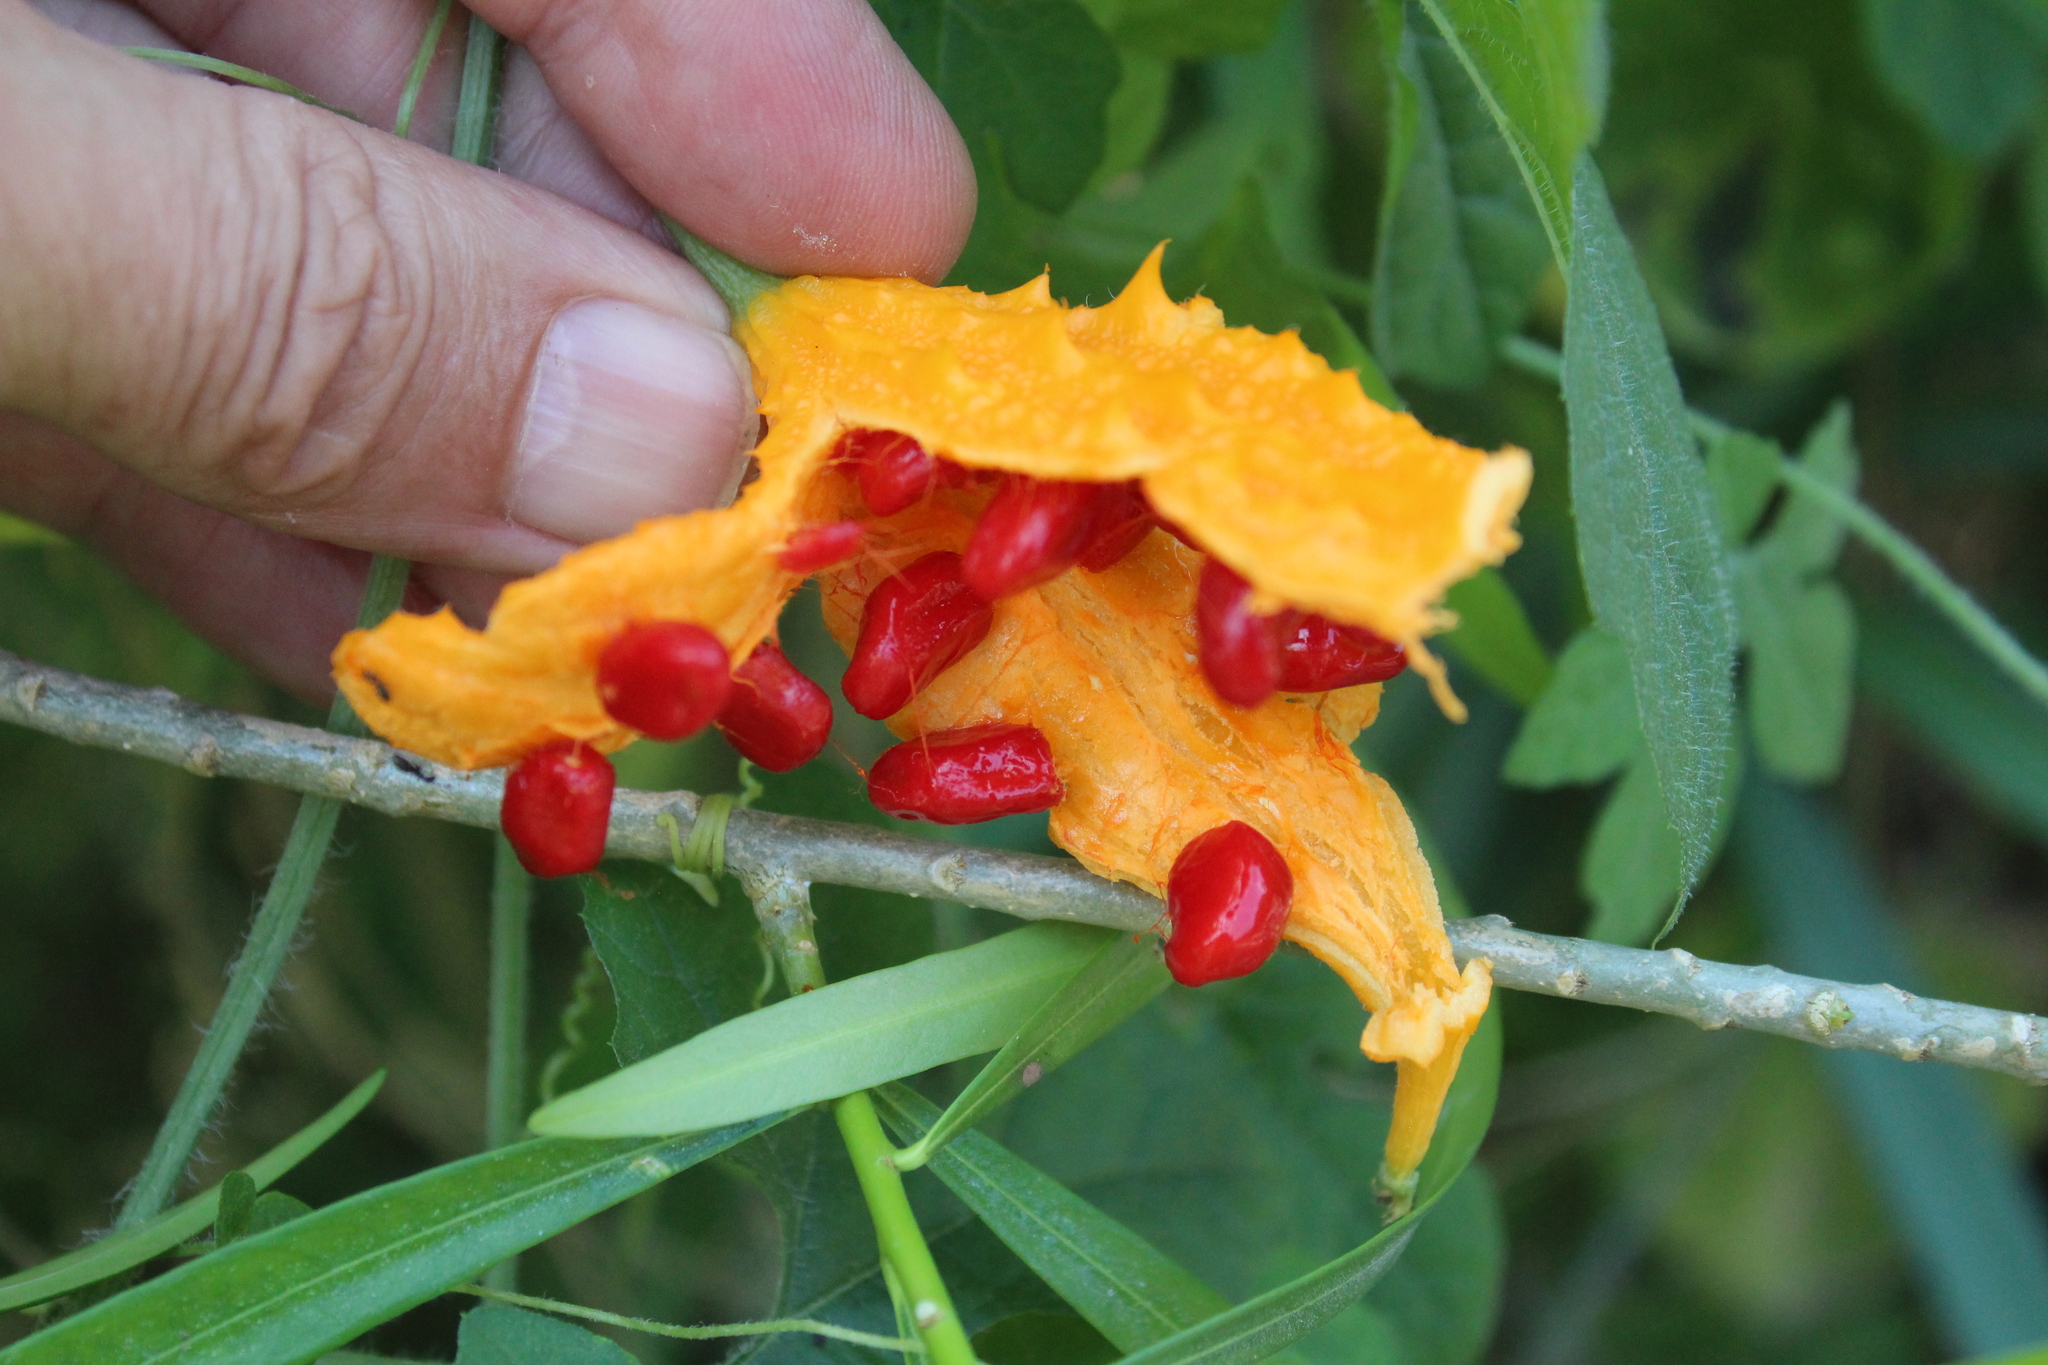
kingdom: Plantae
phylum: Tracheophyta
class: Magnoliopsida
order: Cucurbitales
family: Cucurbitaceae
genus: Momordica
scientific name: Momordica charantia
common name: Balsampear
